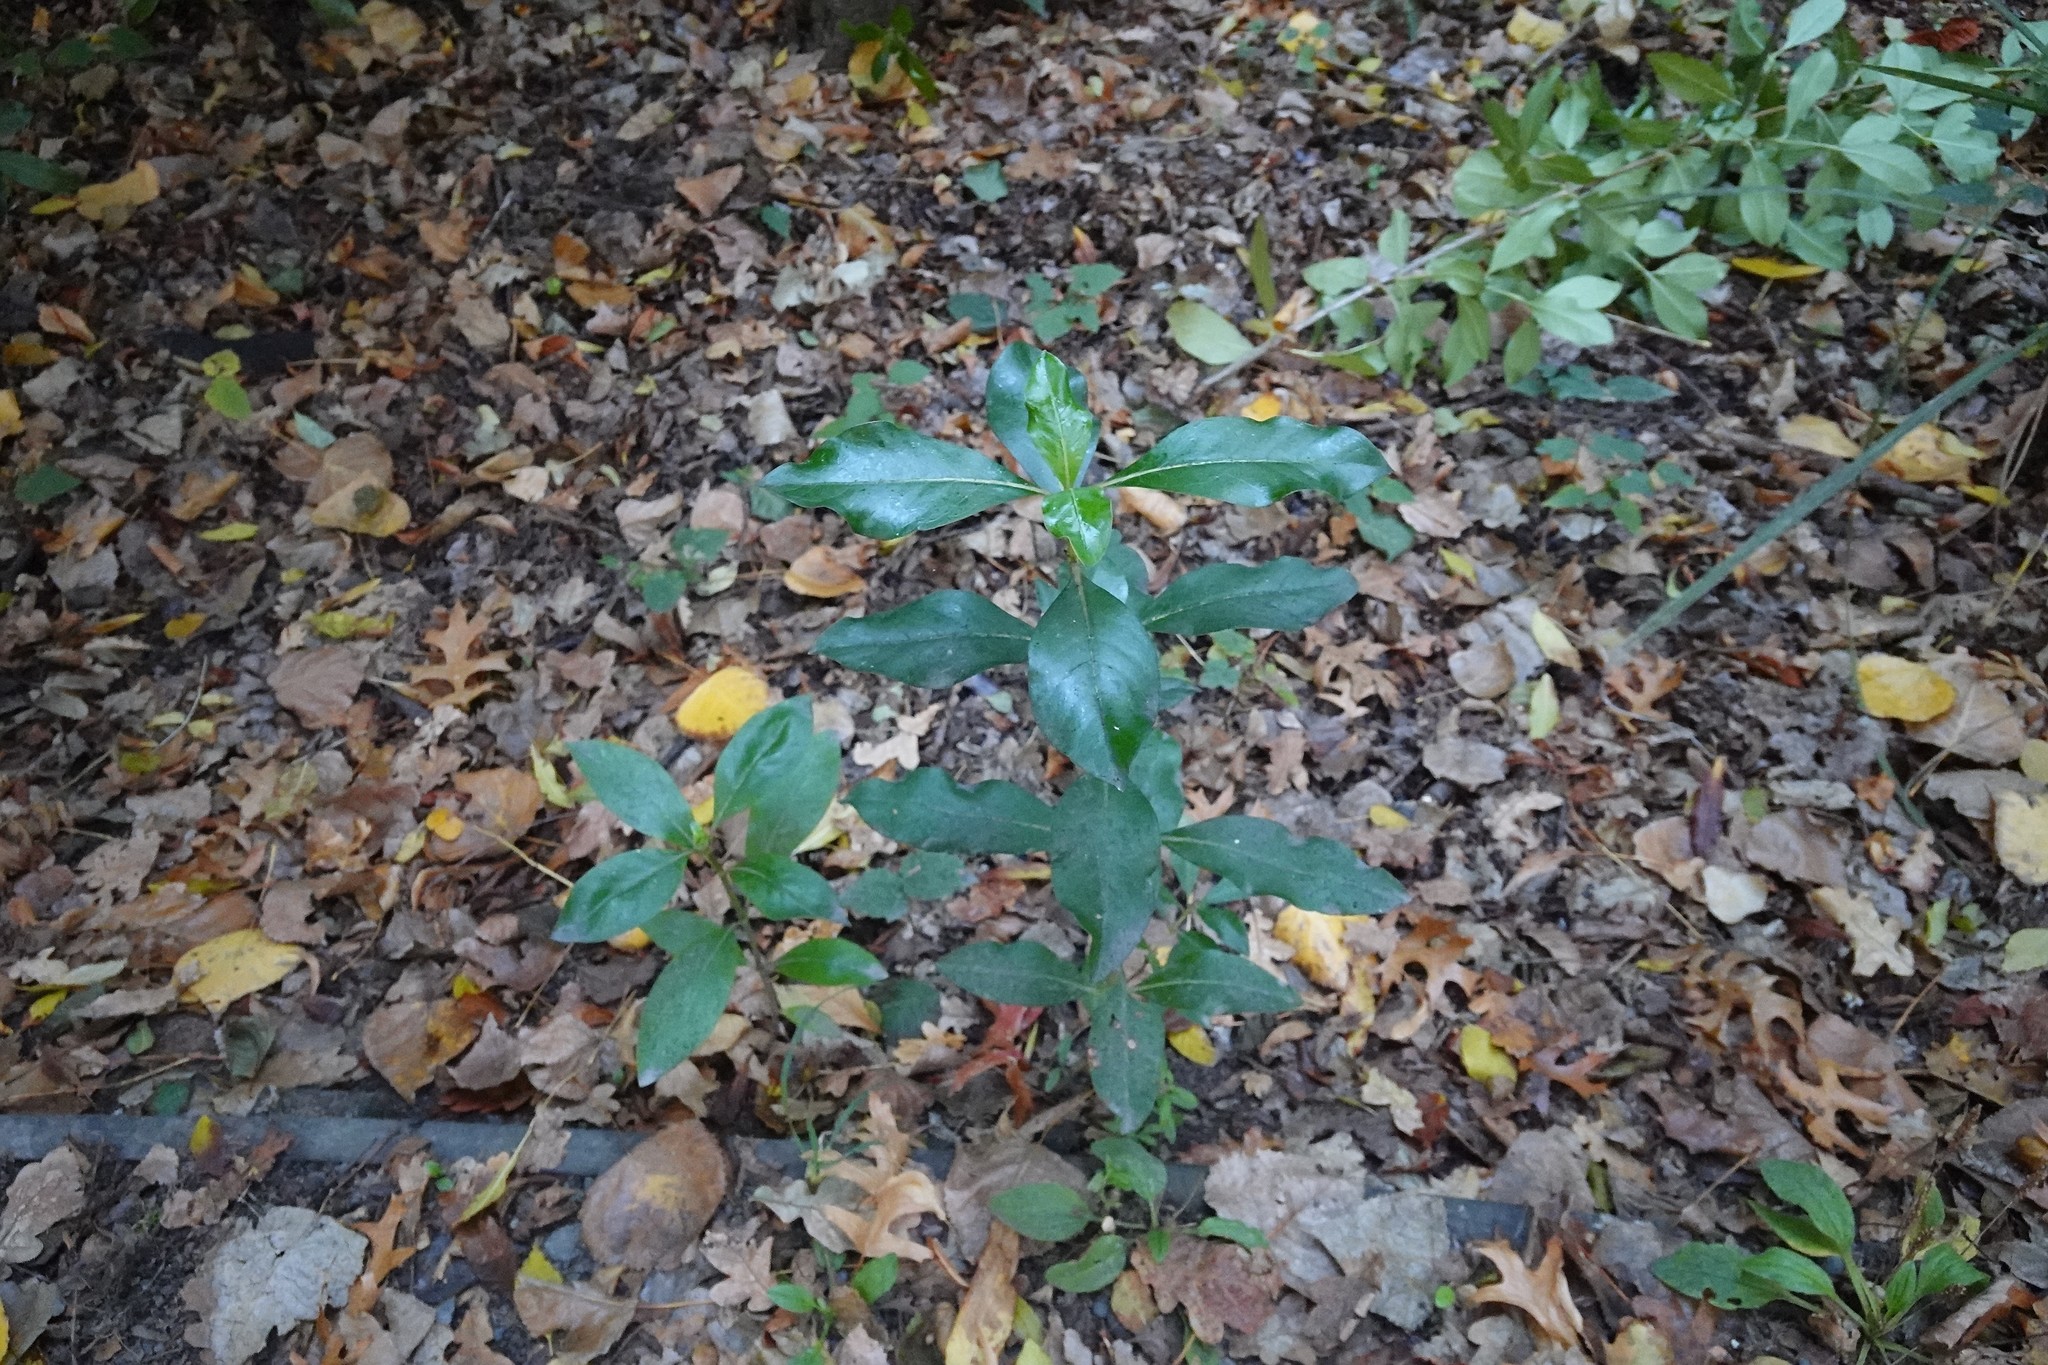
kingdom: Plantae
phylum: Tracheophyta
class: Magnoliopsida
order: Gentianales
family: Rubiaceae
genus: Coprosma
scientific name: Coprosma robusta
